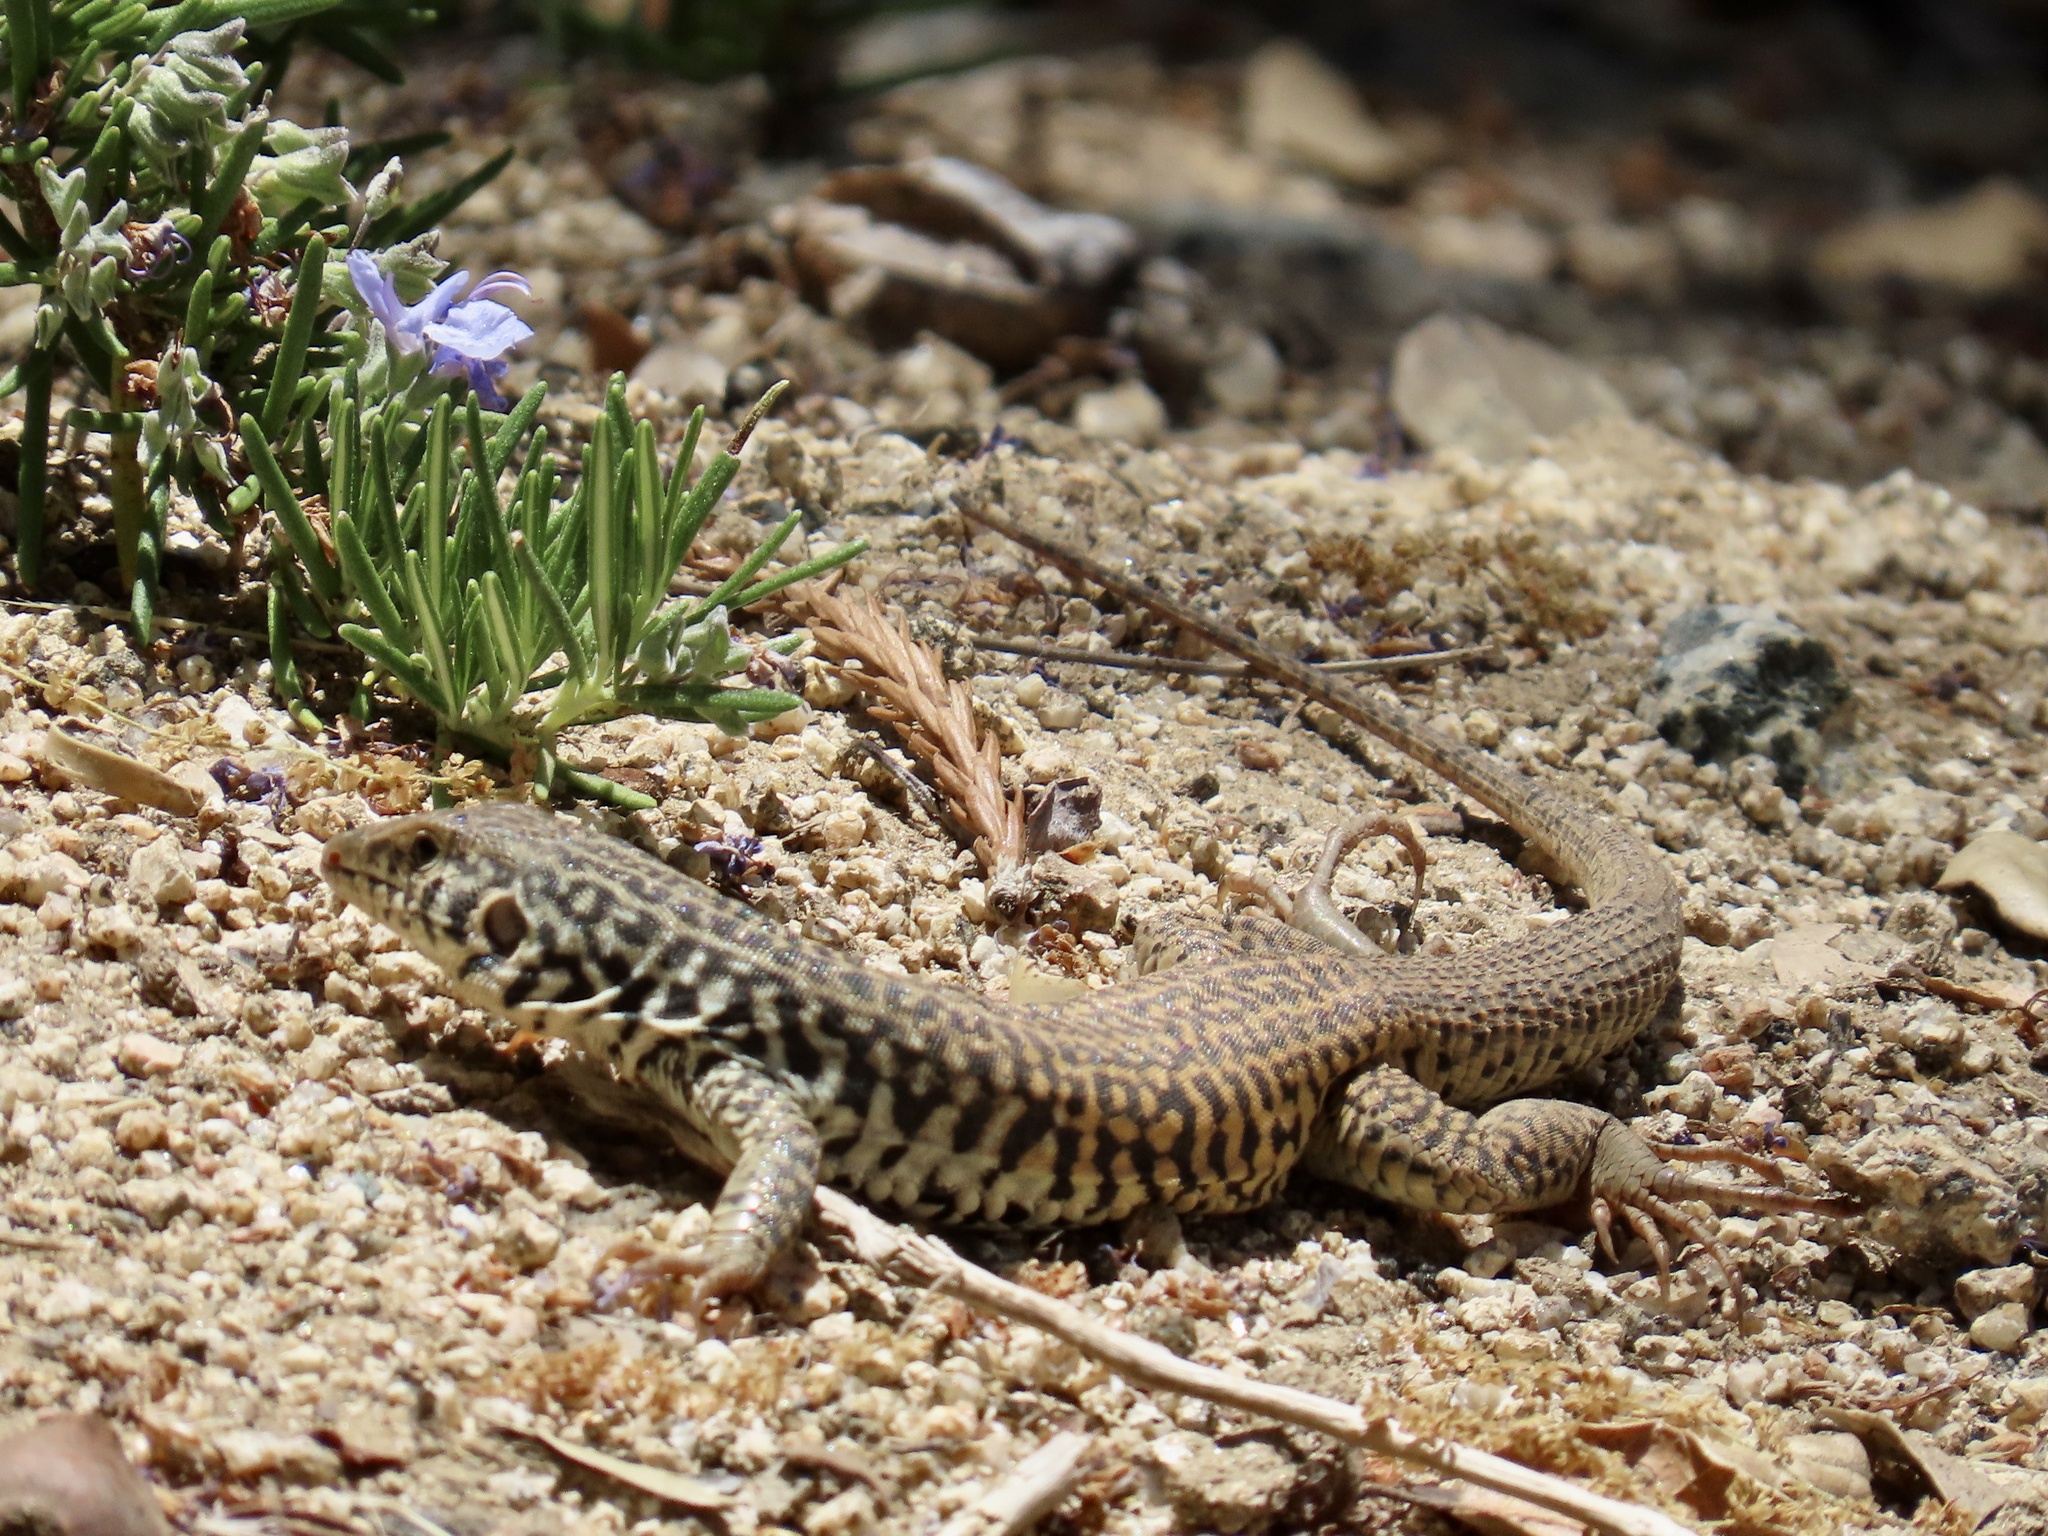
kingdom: Animalia
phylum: Chordata
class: Squamata
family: Teiidae
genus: Aspidoscelis
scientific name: Aspidoscelis tigris
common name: Tiger whiptail
